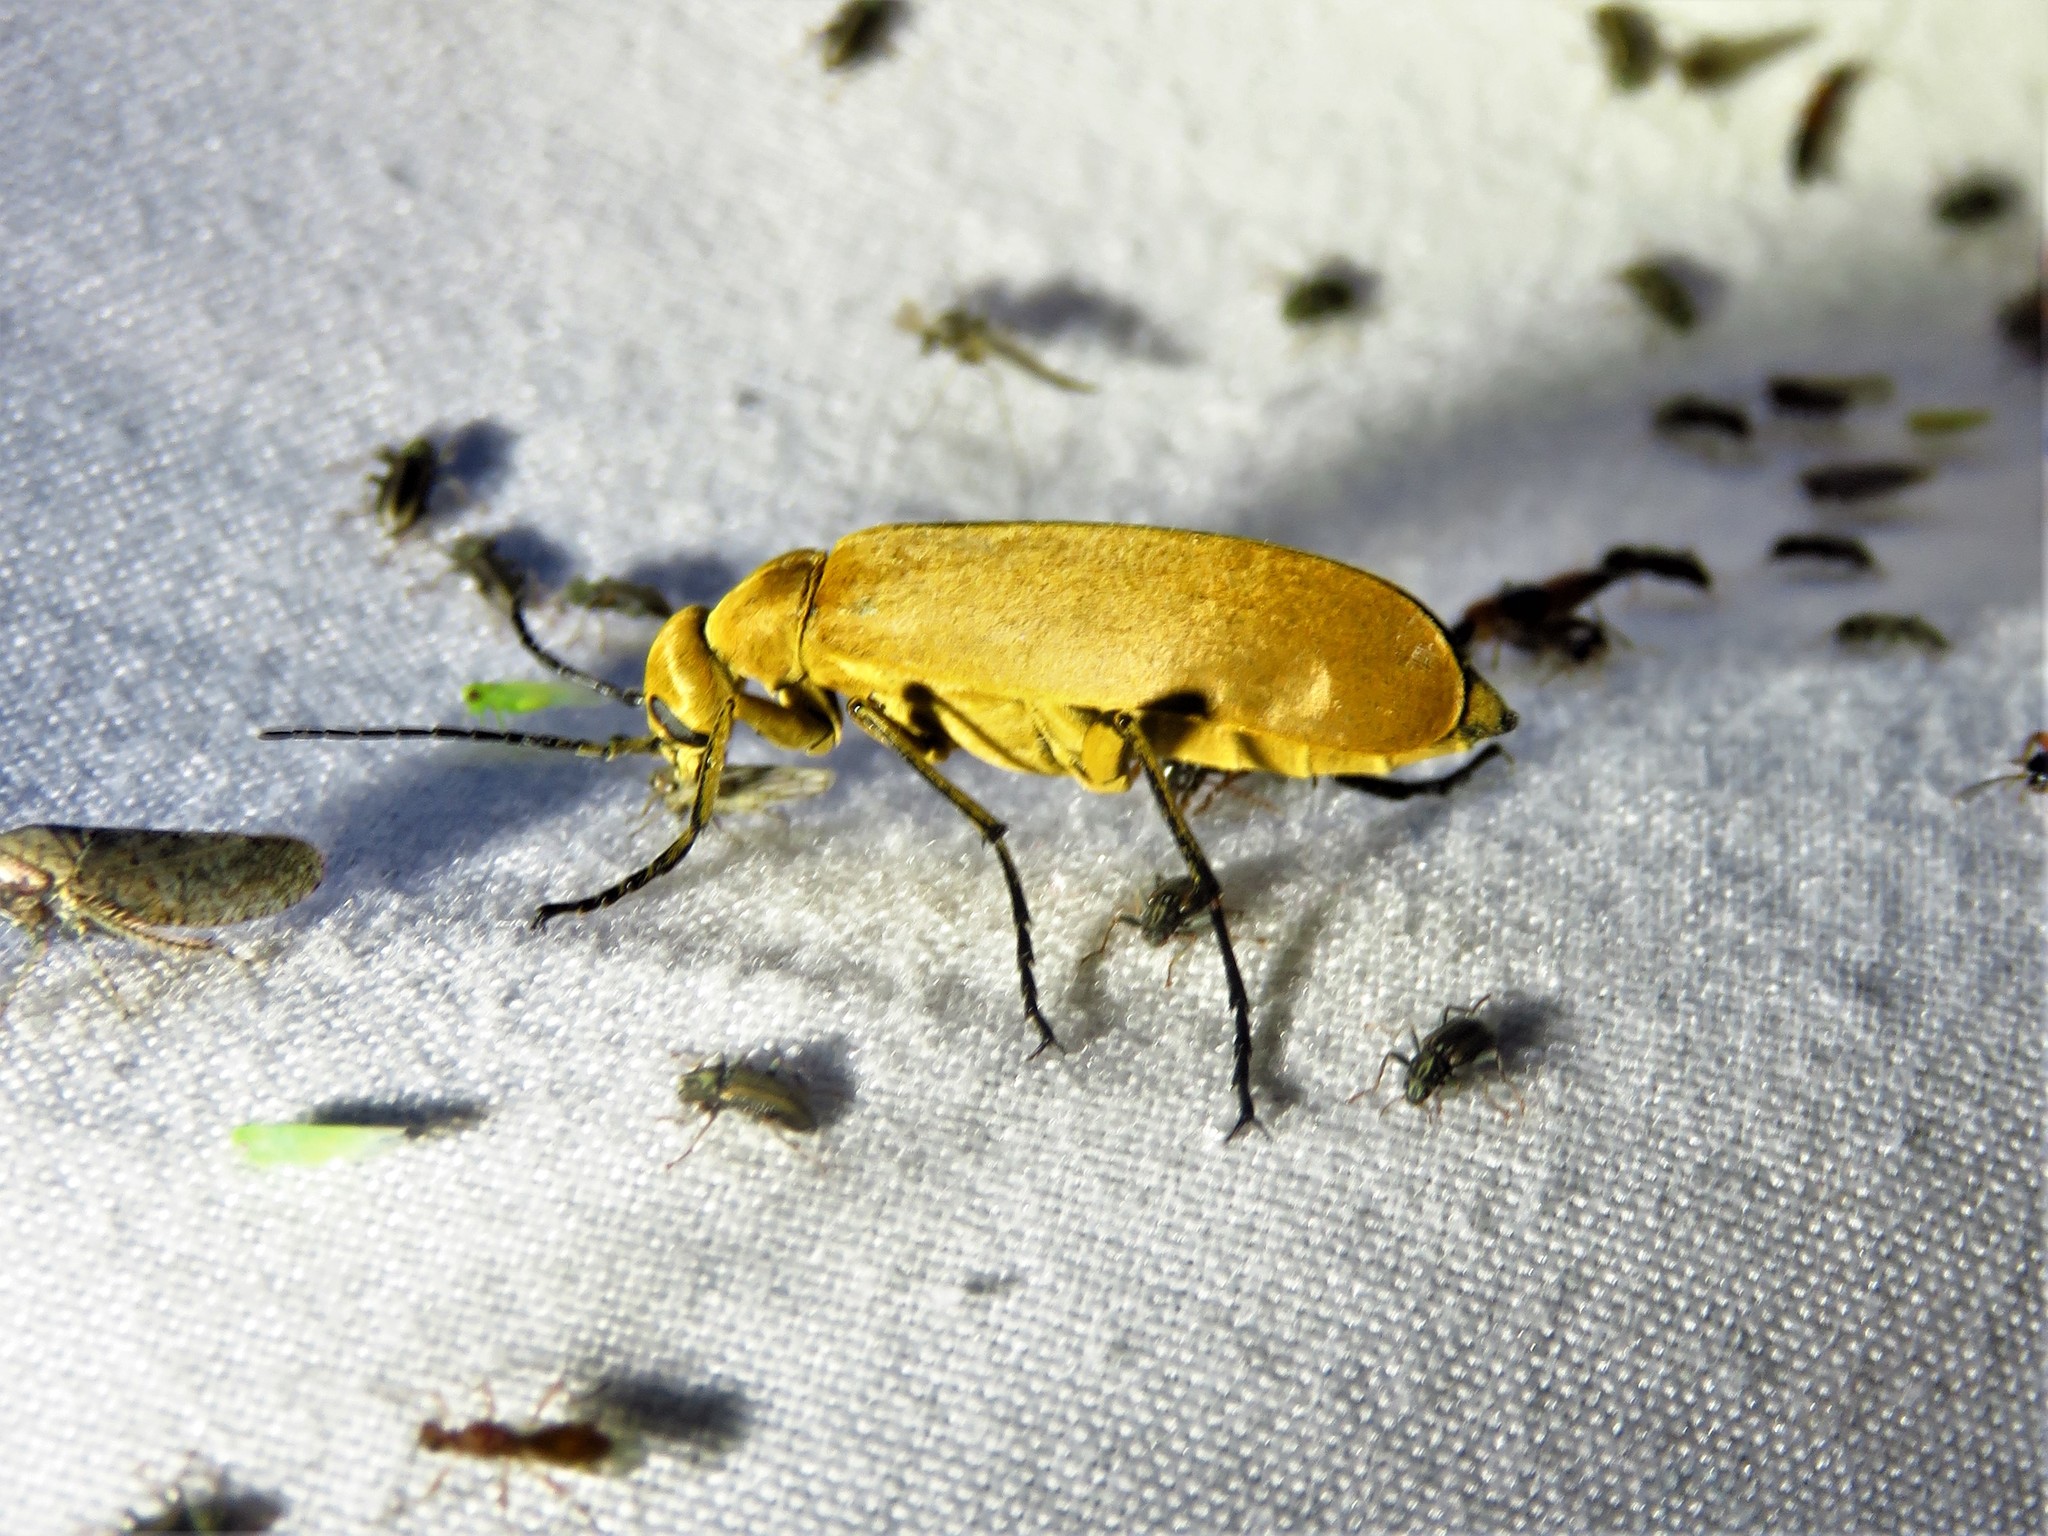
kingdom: Animalia
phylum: Arthropoda
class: Insecta
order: Coleoptera
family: Meloidae
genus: Epicauta
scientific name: Epicauta immaculata
